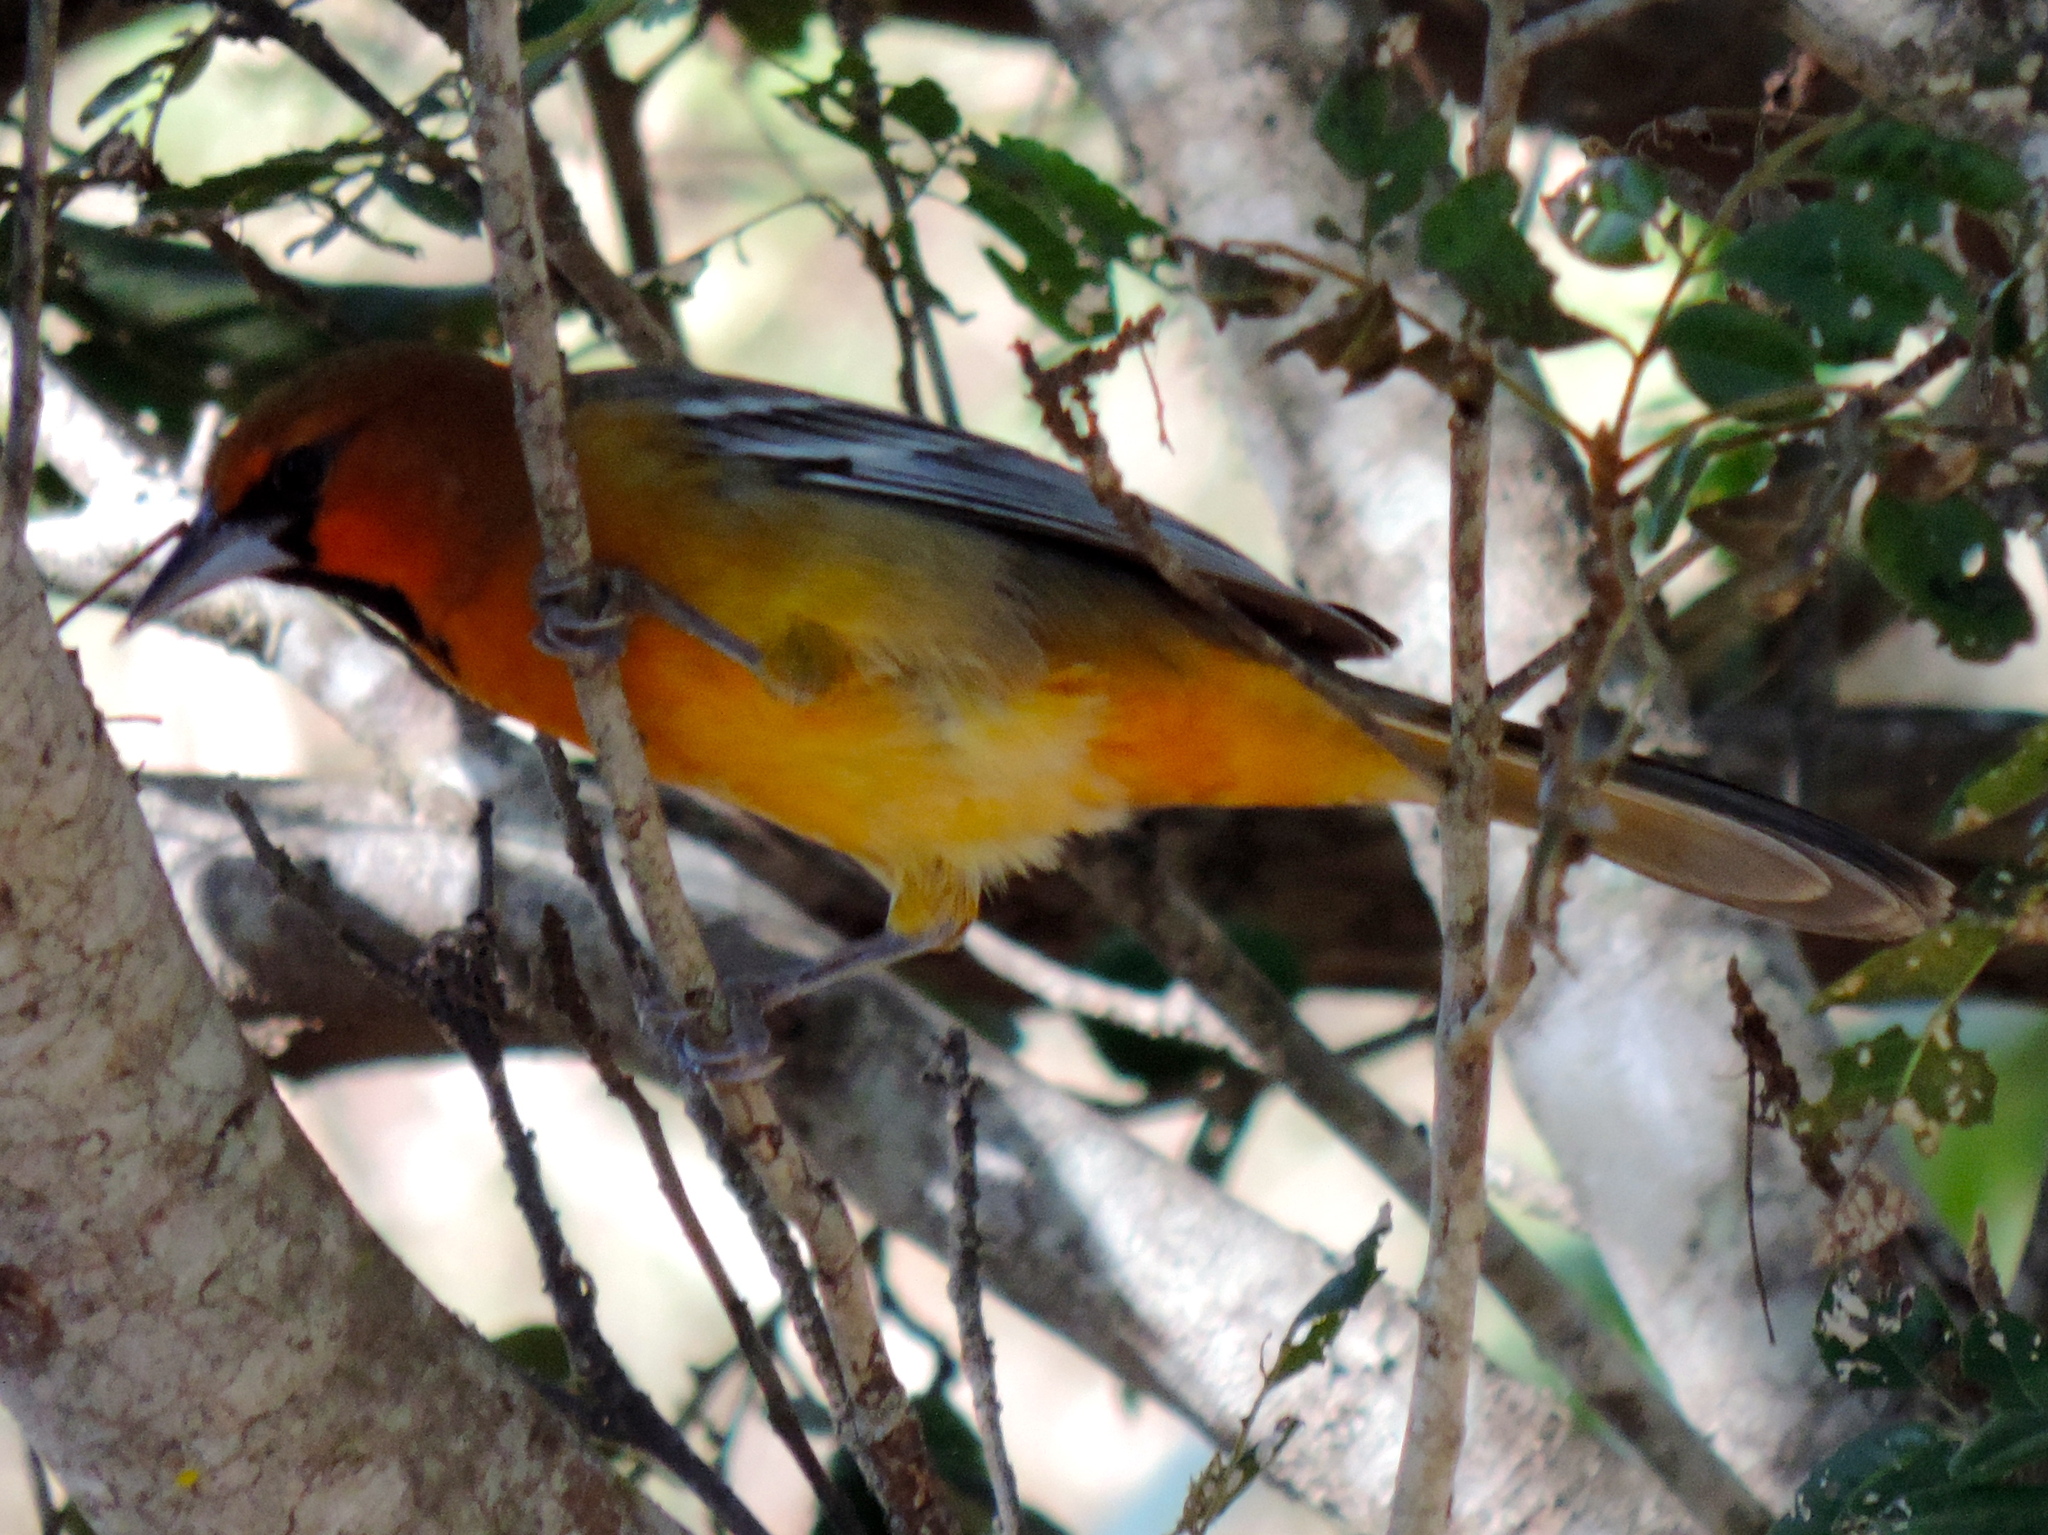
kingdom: Animalia
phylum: Chordata
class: Aves
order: Passeriformes
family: Icteridae
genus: Icterus
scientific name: Icterus pustulatus
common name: Streak-backed oriole
